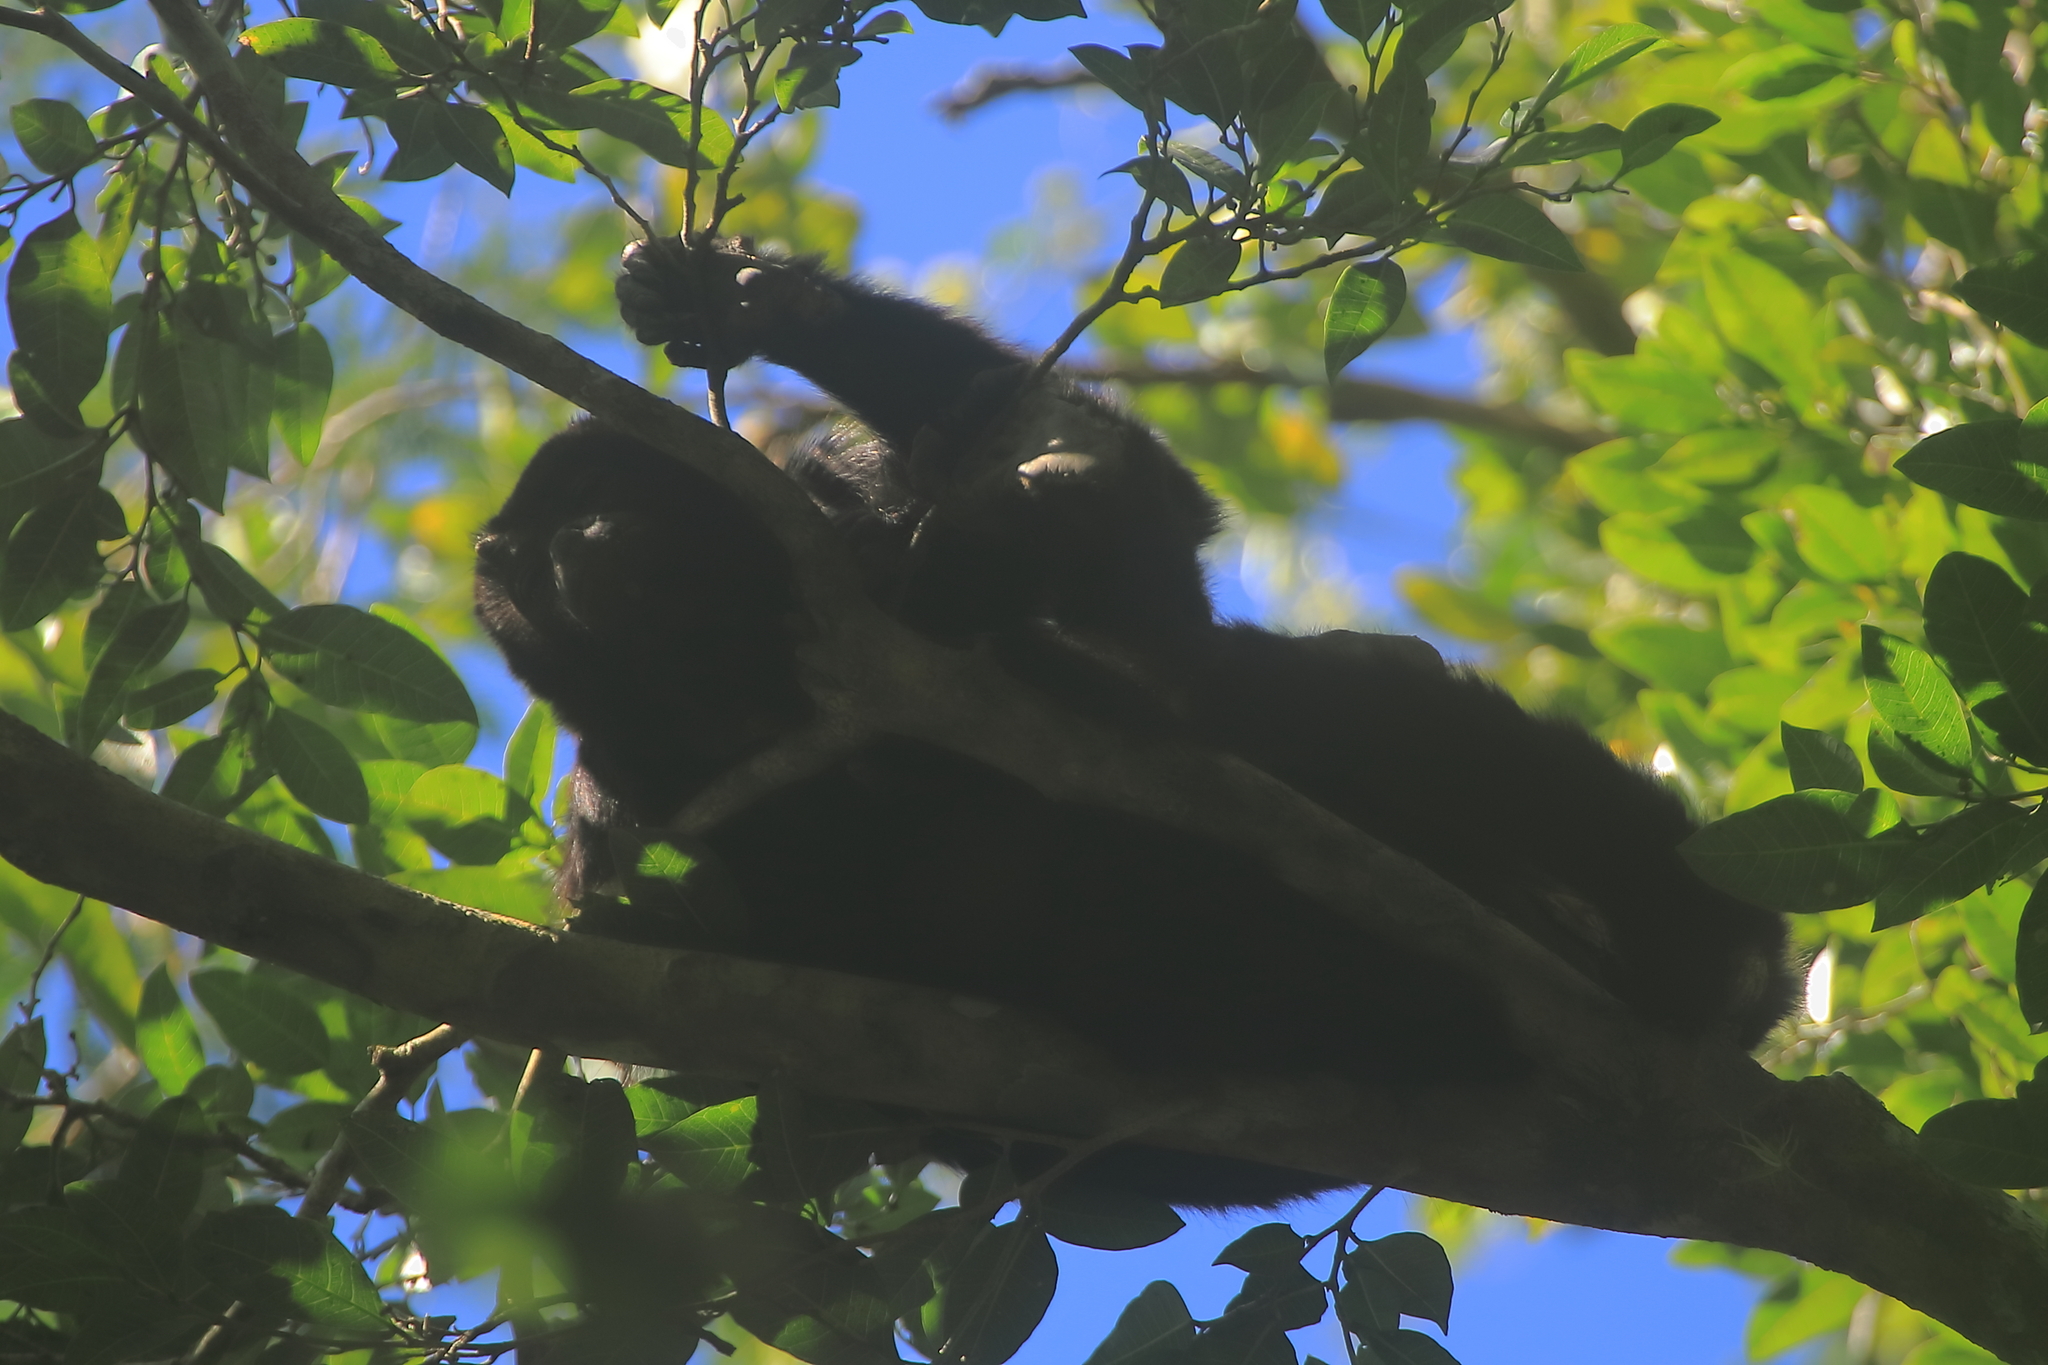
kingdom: Animalia
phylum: Chordata
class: Mammalia
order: Primates
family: Atelidae
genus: Alouatta
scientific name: Alouatta pigra
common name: Guatemalan black howler
